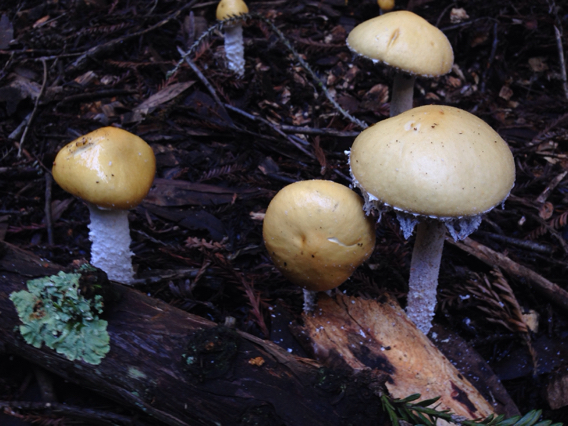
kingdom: Fungi
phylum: Basidiomycota
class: Agaricomycetes
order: Agaricales
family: Strophariaceae
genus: Stropharia
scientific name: Stropharia ambigua
